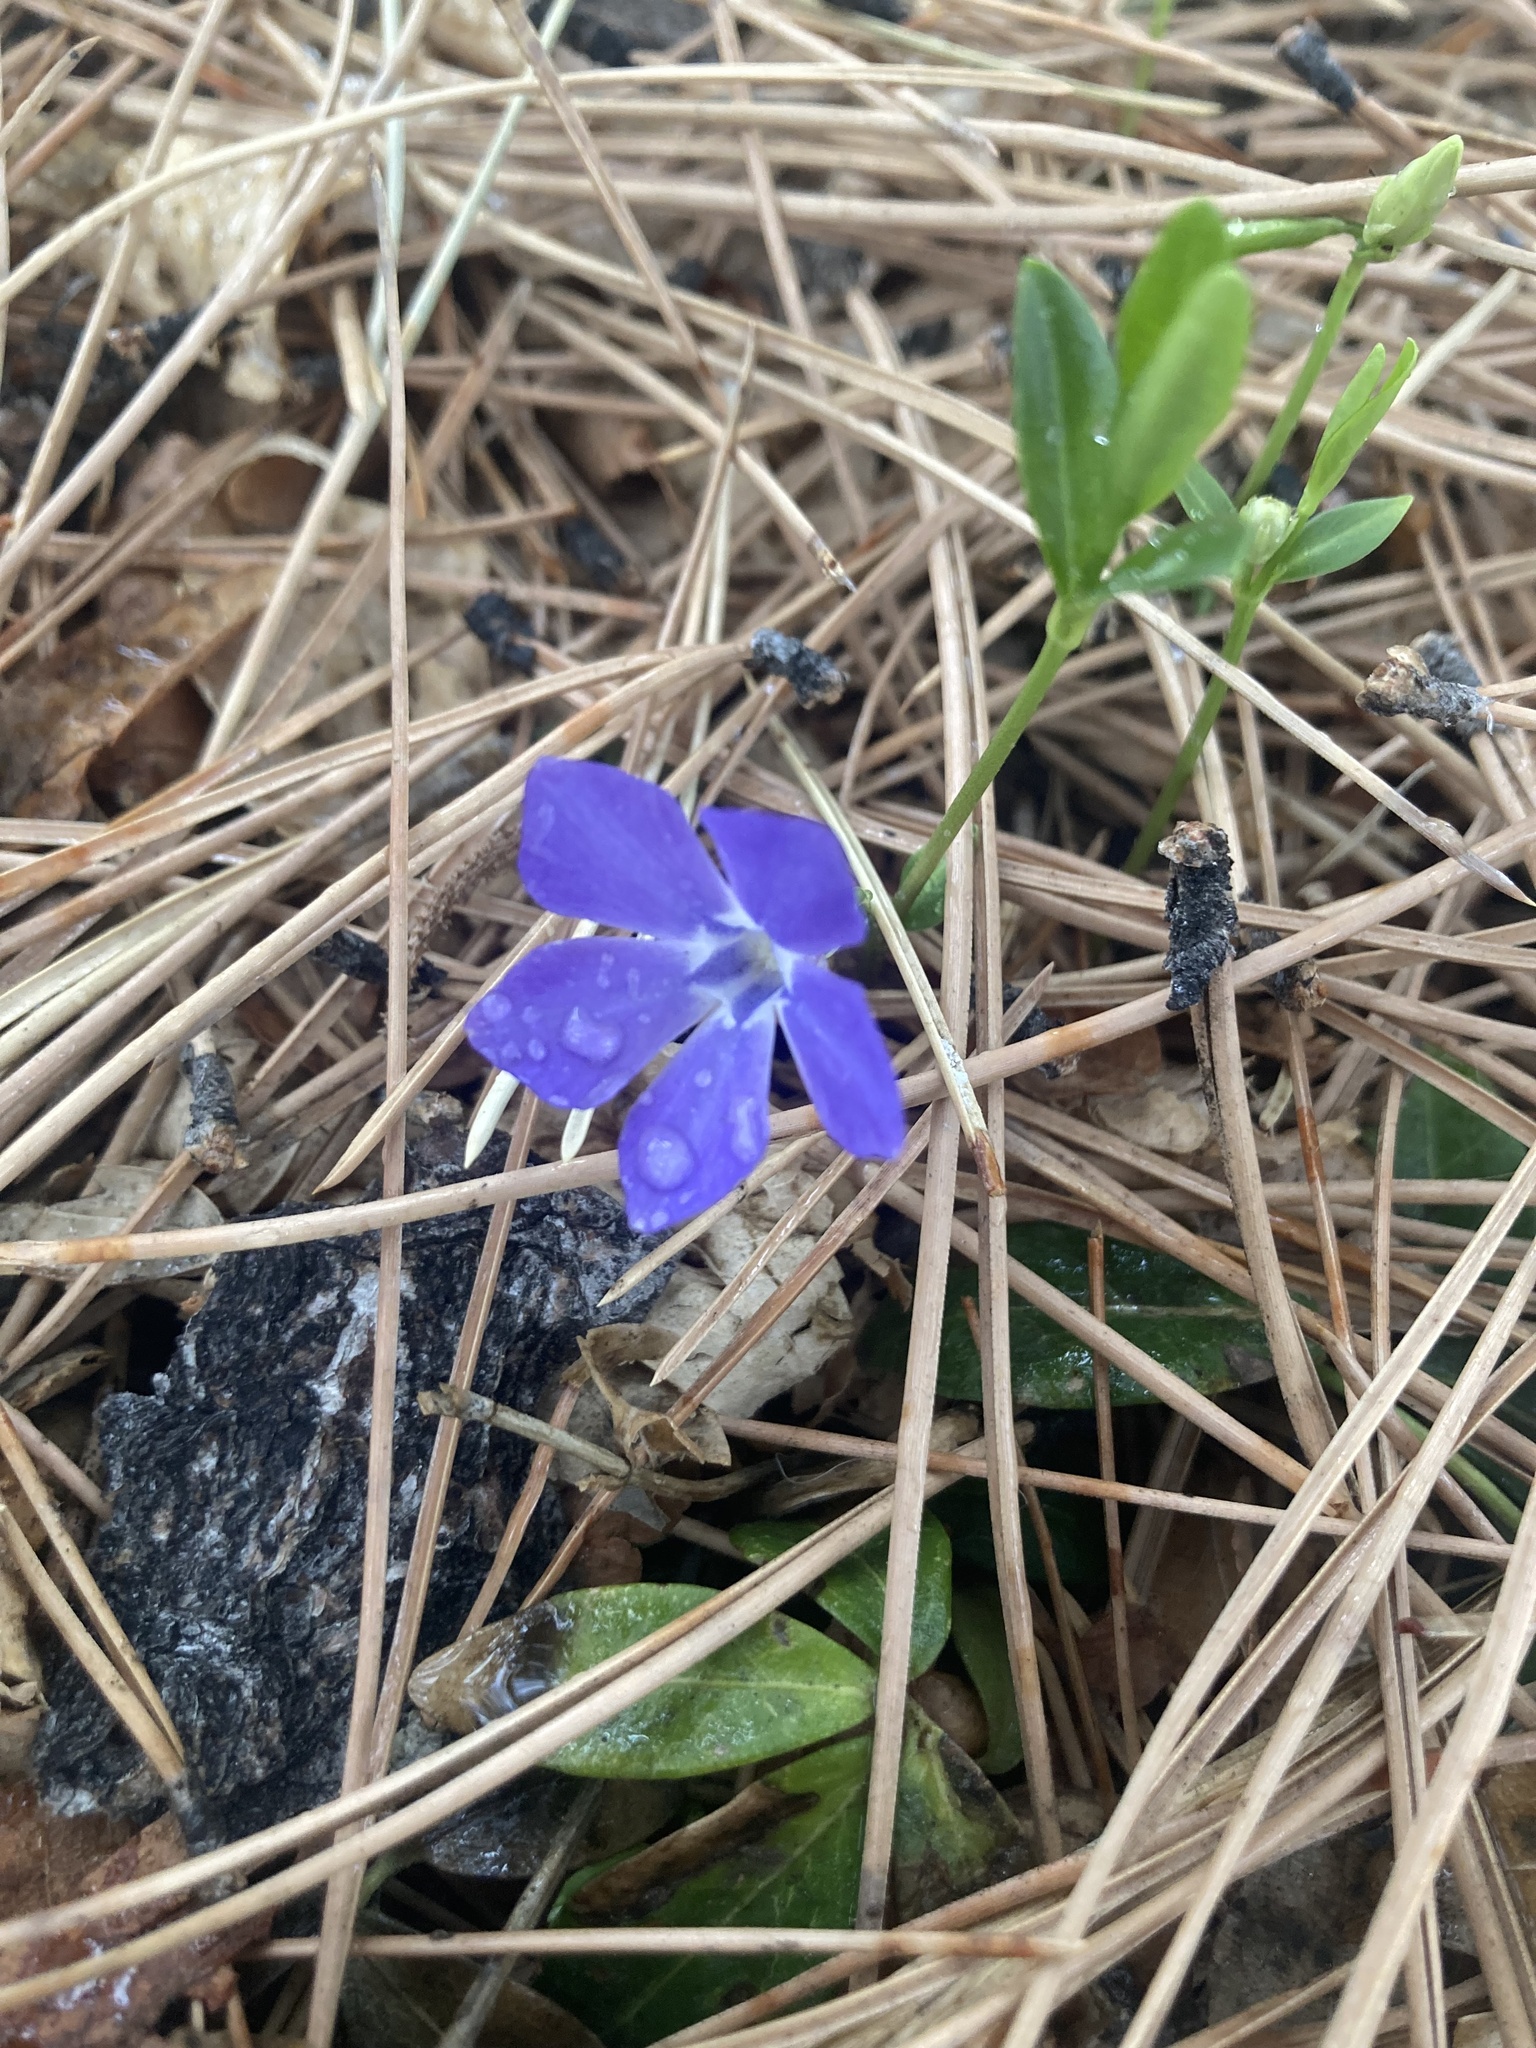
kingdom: Plantae
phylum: Tracheophyta
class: Magnoliopsida
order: Gentianales
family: Apocynaceae
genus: Vinca
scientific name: Vinca minor
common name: Lesser periwinkle
